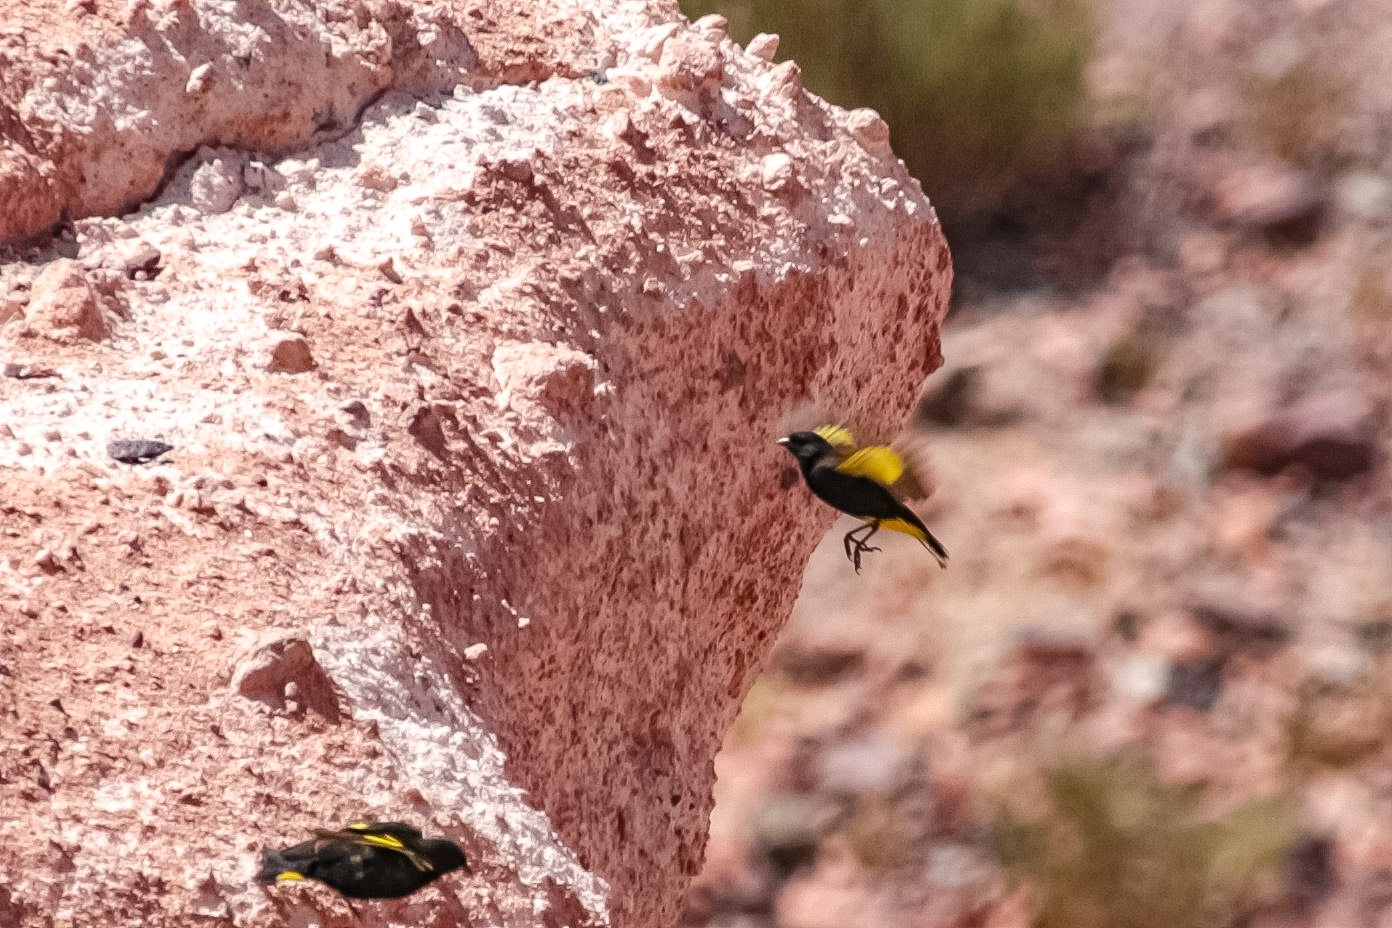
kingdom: Animalia
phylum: Chordata
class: Aves
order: Passeriformes
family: Fringillidae
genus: Spinus
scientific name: Spinus atratus
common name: Black siskin
